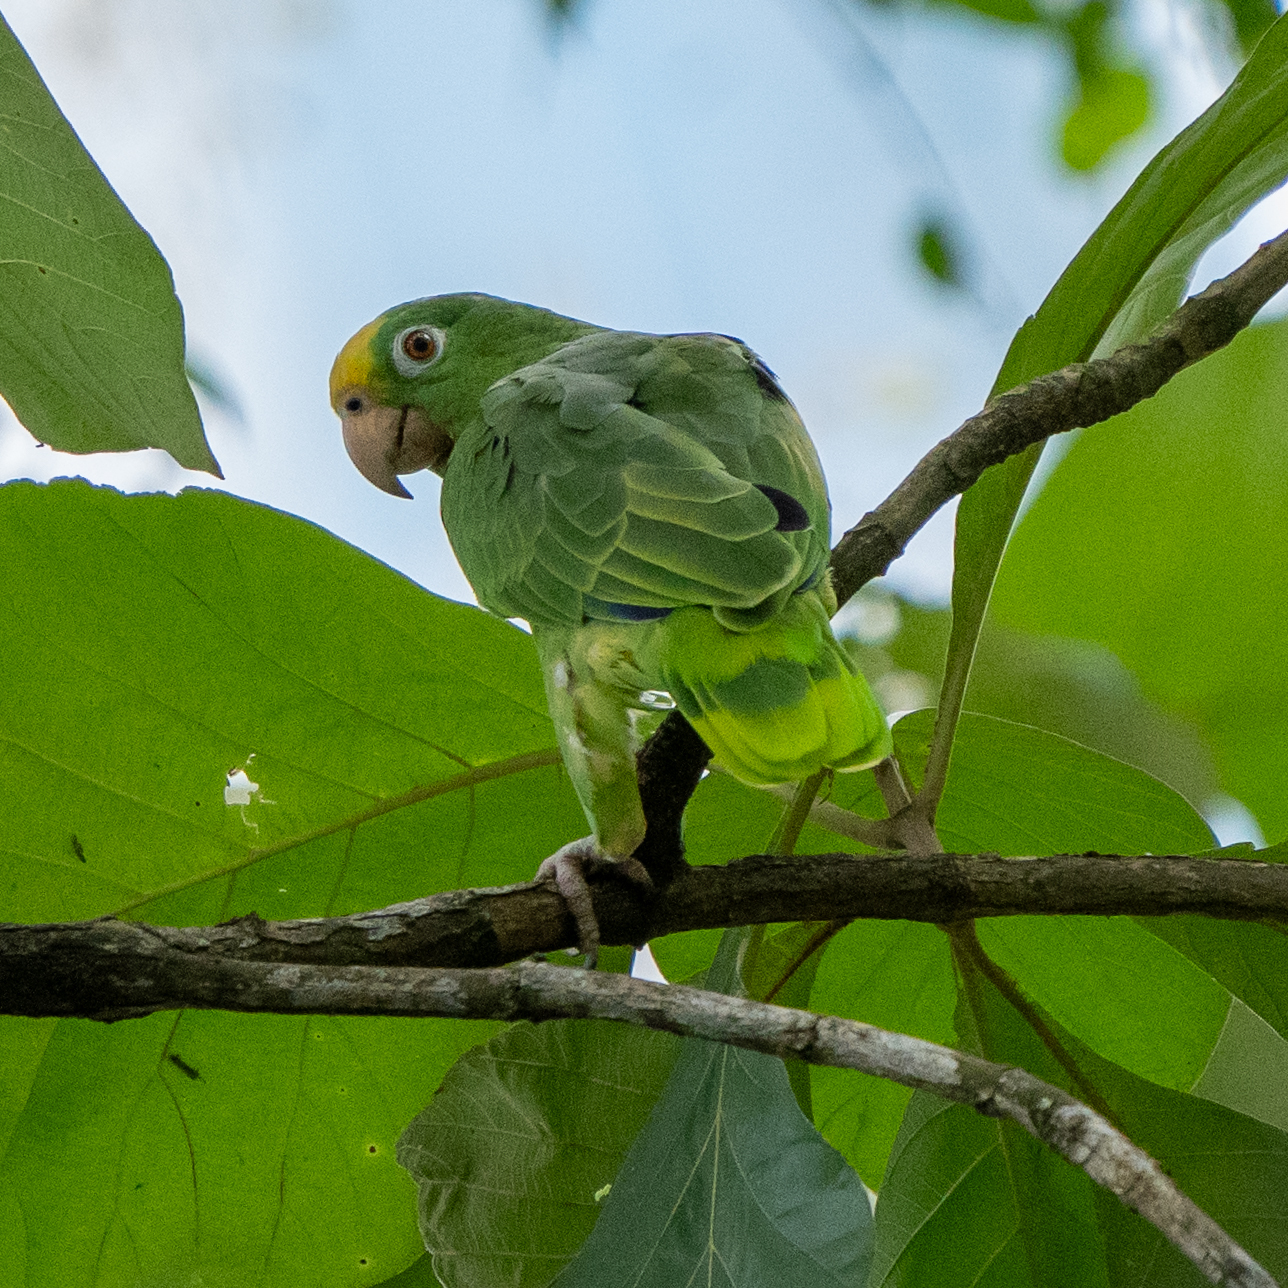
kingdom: Animalia
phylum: Chordata
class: Aves
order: Psittaciformes
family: Psittacidae
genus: Amazona
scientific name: Amazona ochrocephala
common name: Yellow-crowned amazon
